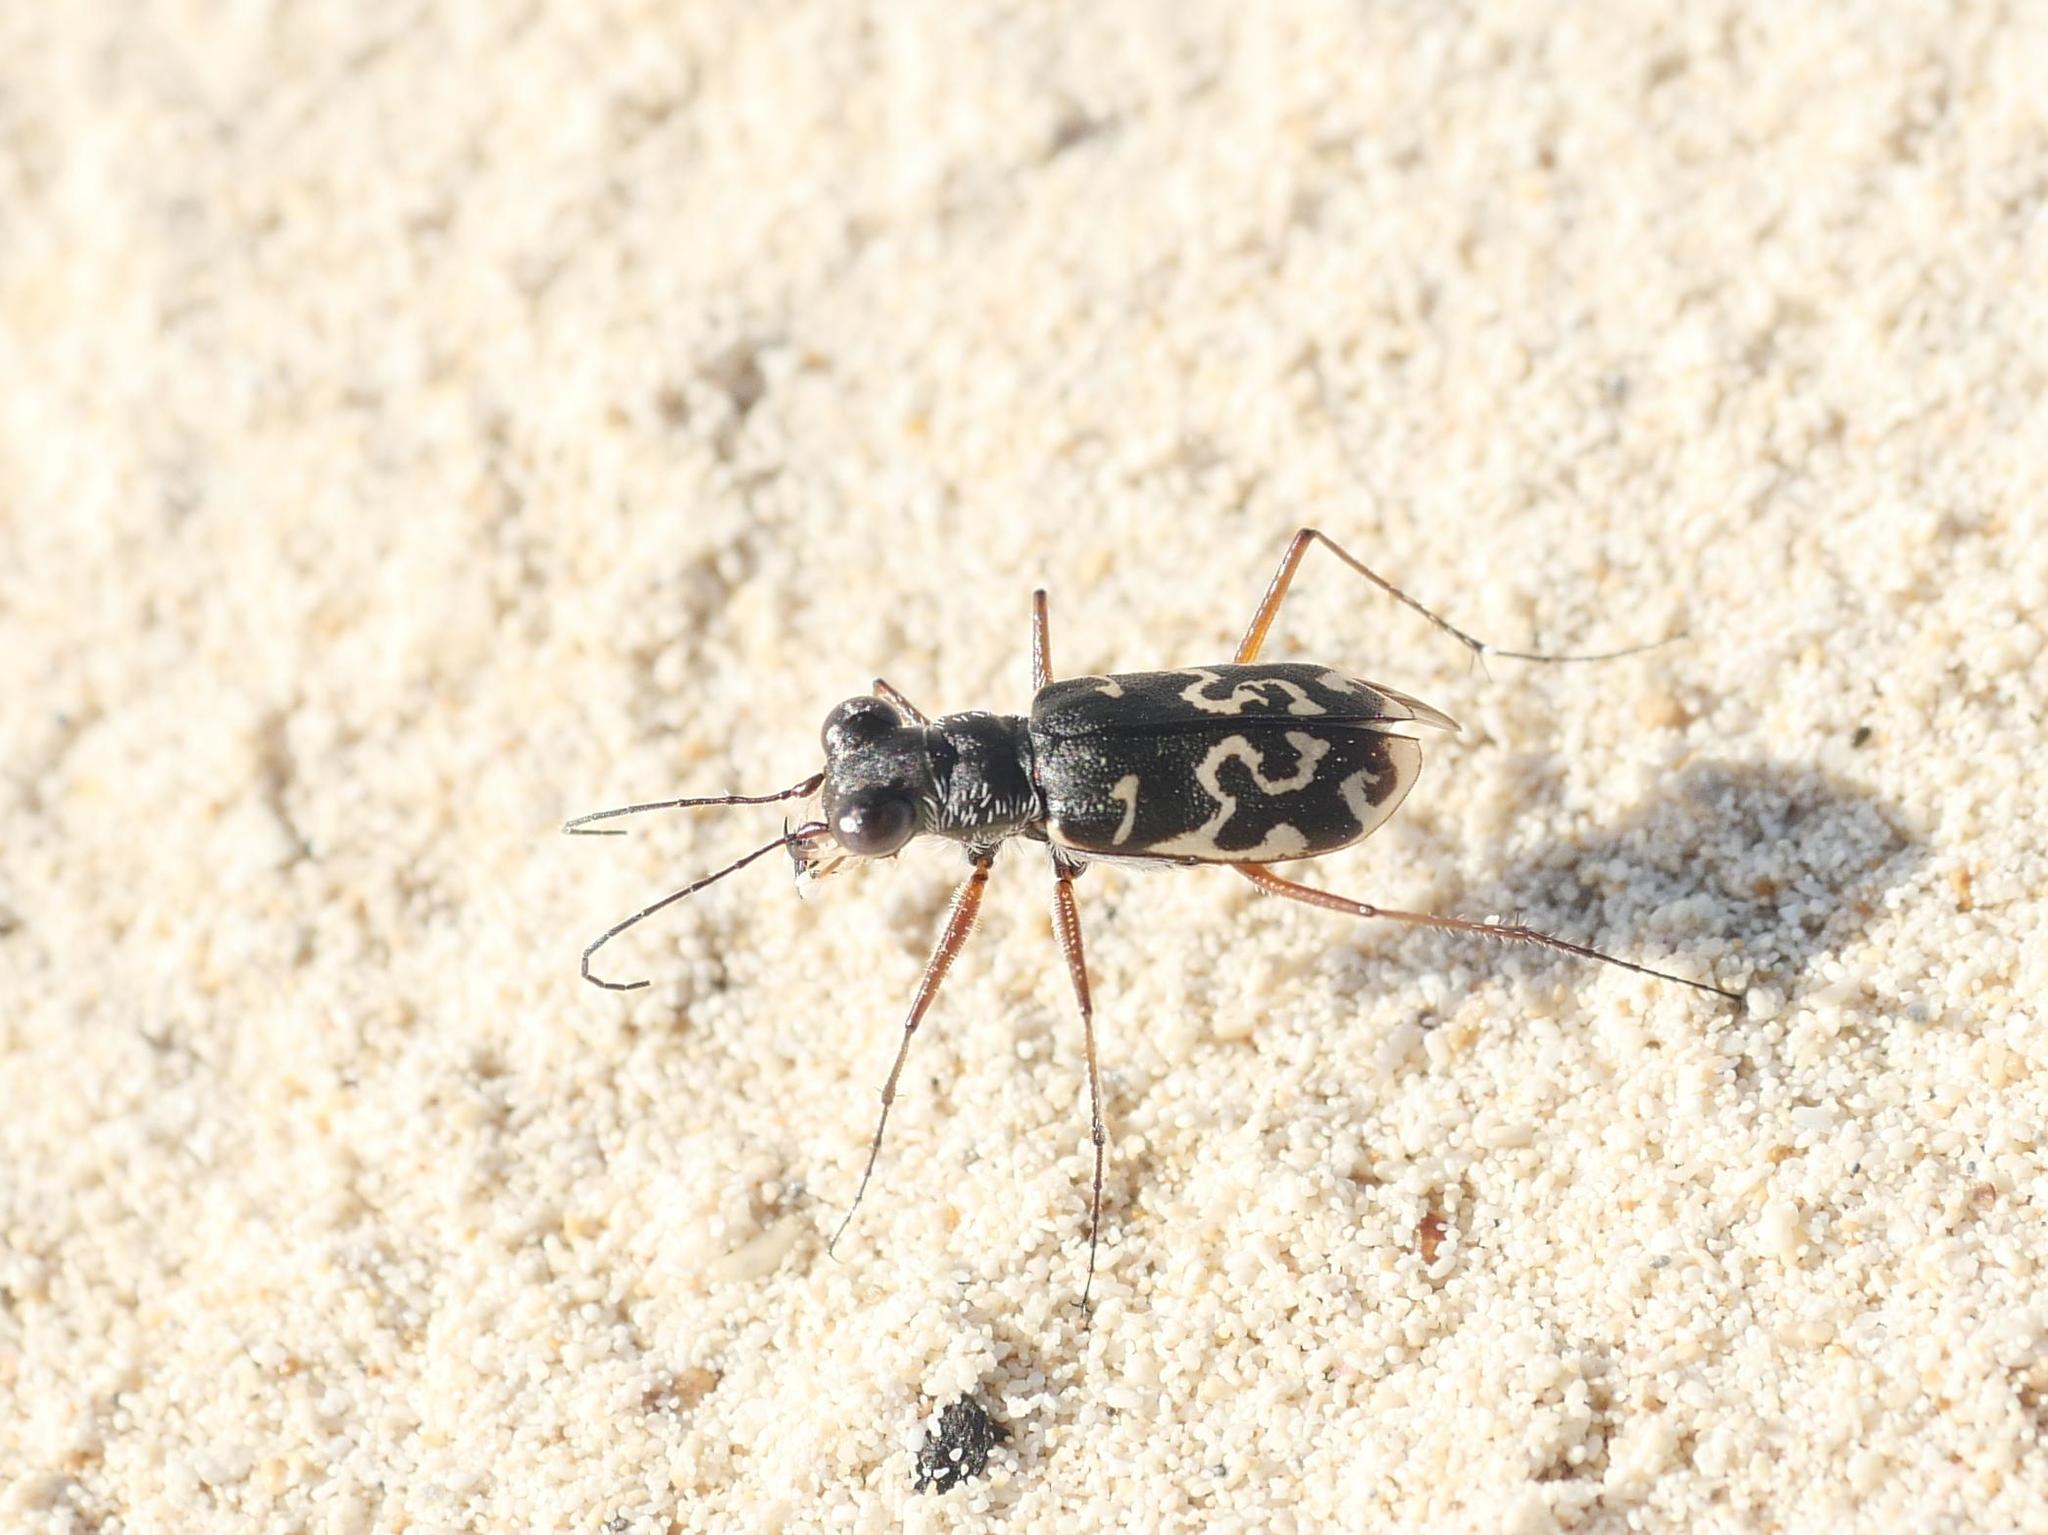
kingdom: Animalia
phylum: Arthropoda
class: Insecta
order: Coleoptera
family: Carabidae
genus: Cicindela
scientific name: Cicindela trifasciata
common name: Mudflat tiger beetle
